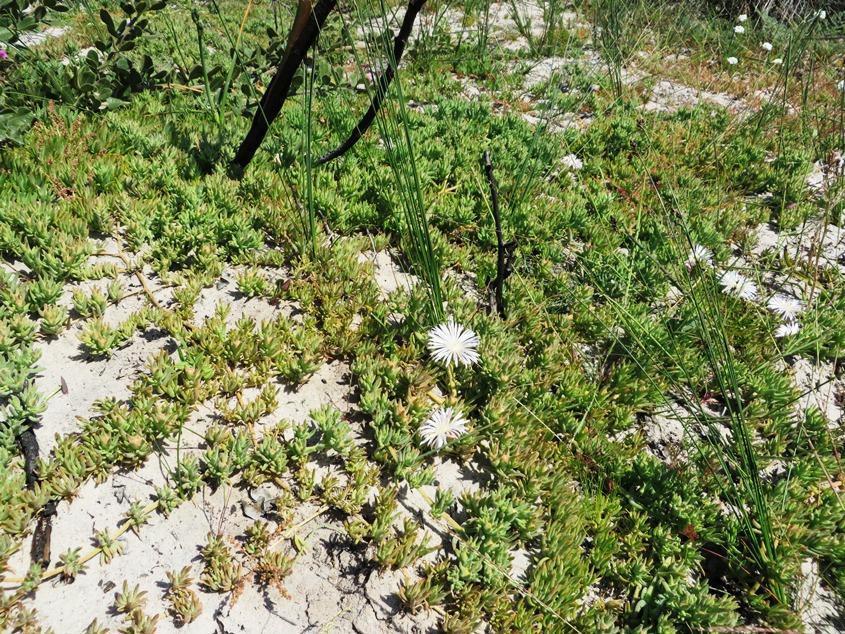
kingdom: Plantae
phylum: Tracheophyta
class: Magnoliopsida
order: Caryophyllales
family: Aizoaceae
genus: Mesembryanthemum
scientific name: Mesembryanthemum canaliculatum
